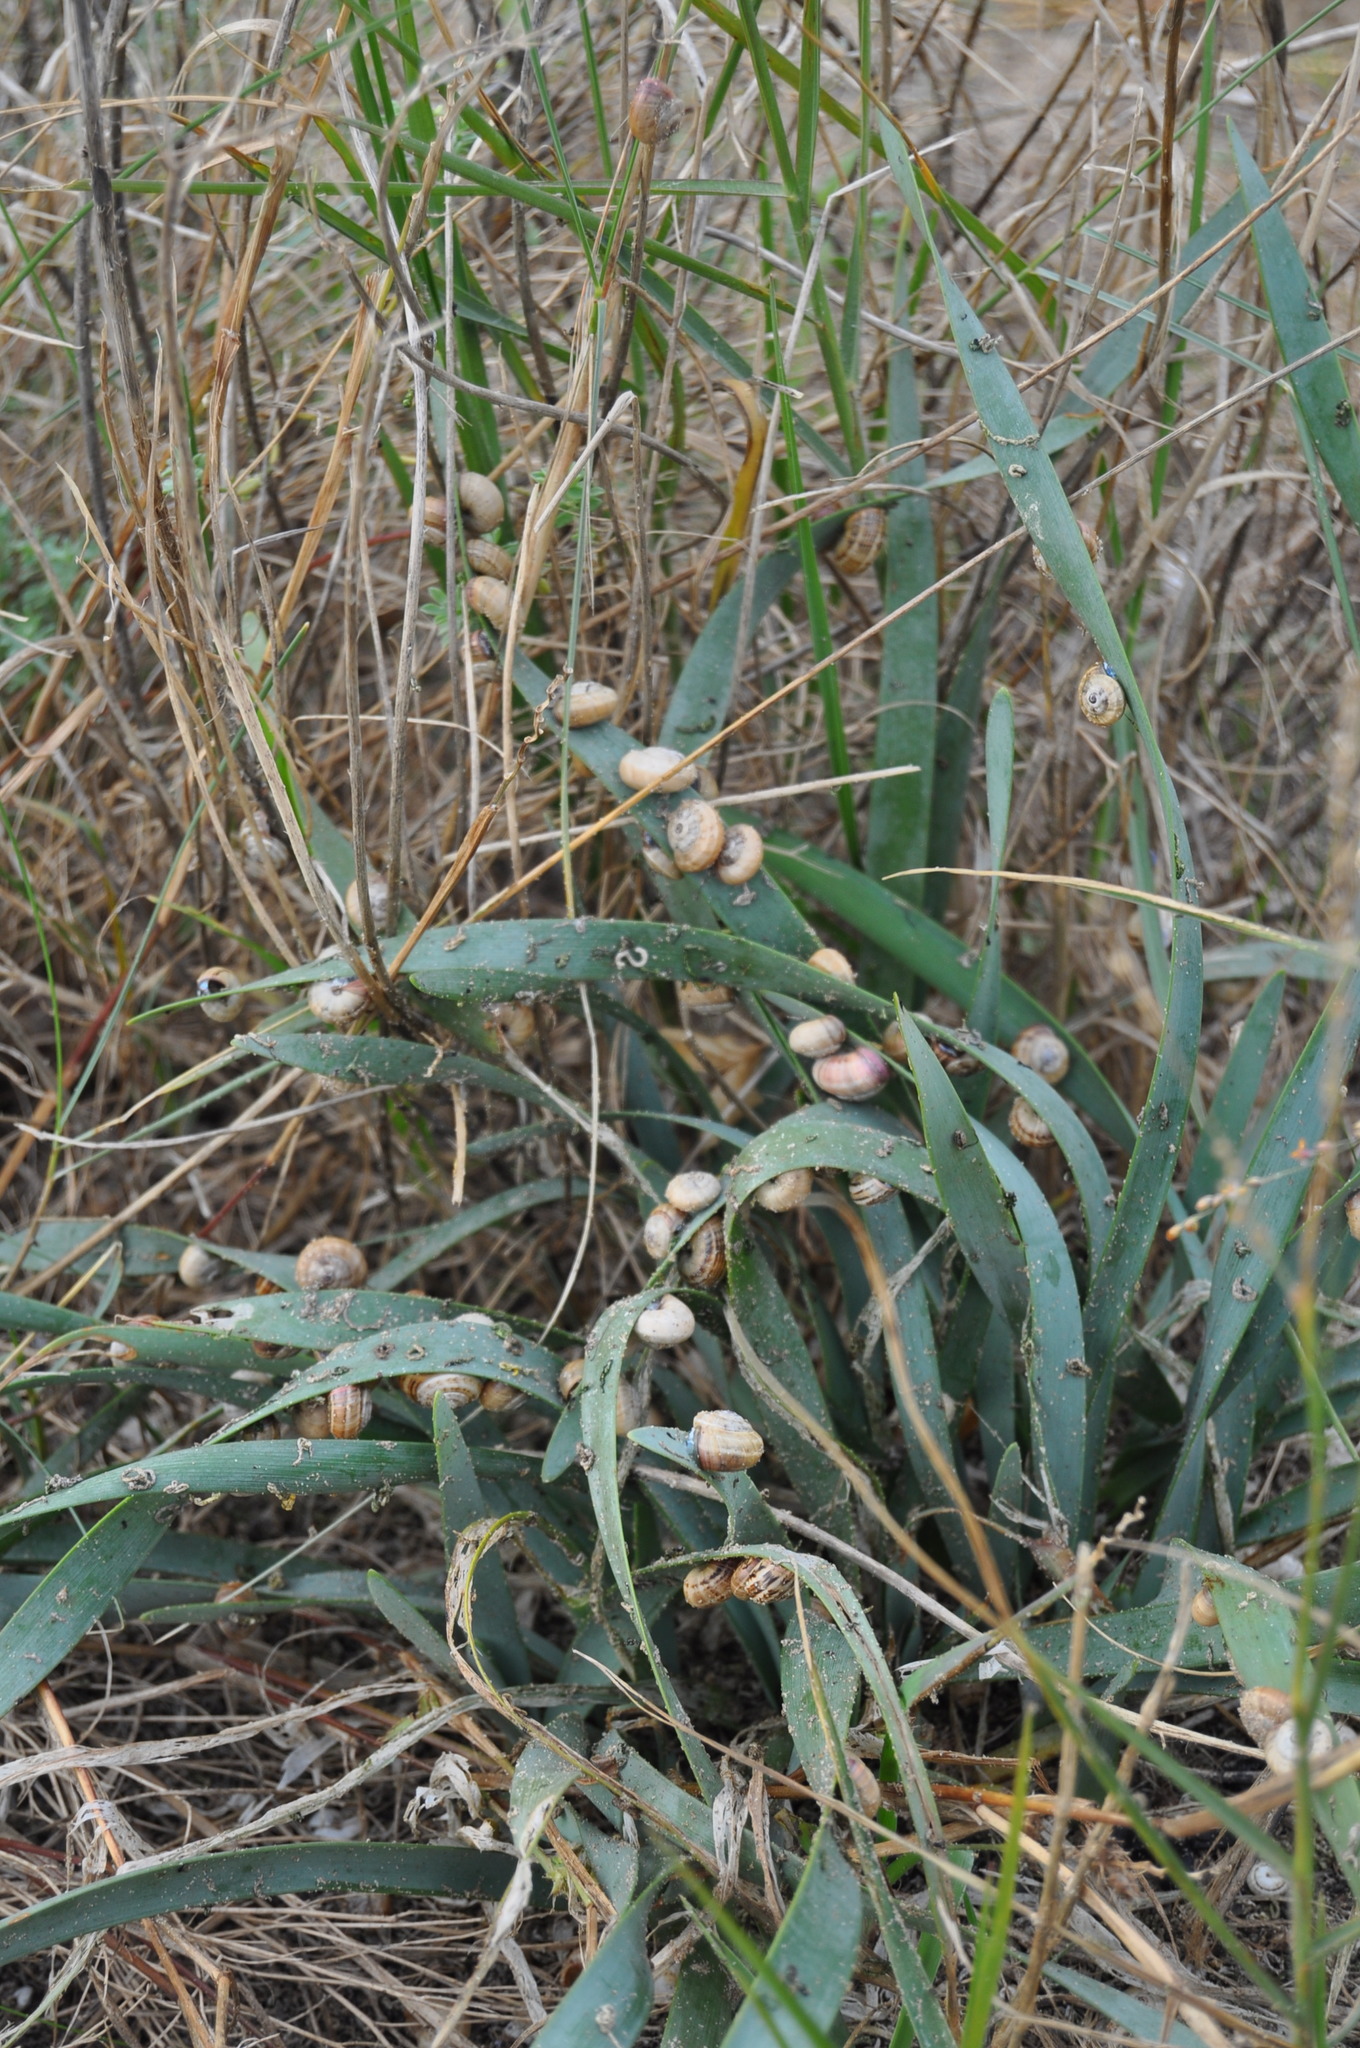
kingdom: Animalia
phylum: Mollusca
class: Gastropoda
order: Stylommatophora
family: Helicidae
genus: Theba
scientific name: Theba pisana
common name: White snail
